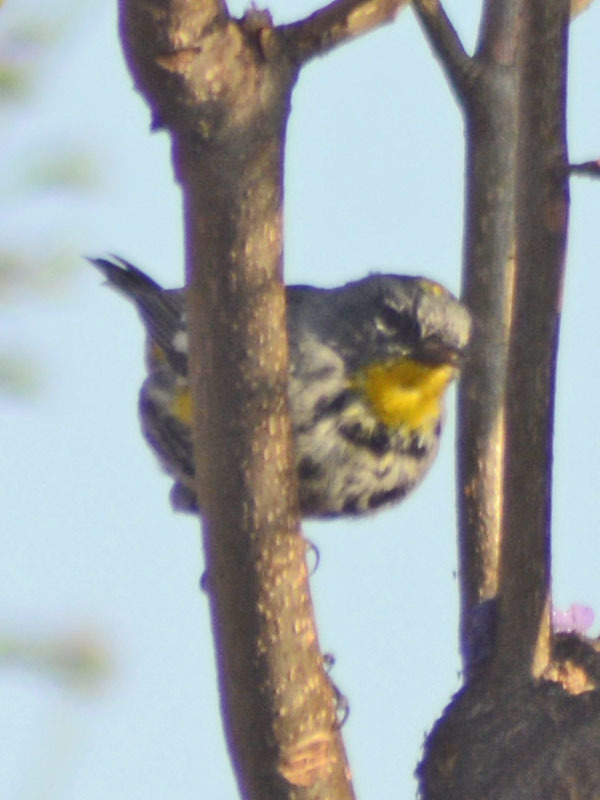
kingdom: Animalia
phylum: Chordata
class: Aves
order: Passeriformes
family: Parulidae
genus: Setophaga
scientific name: Setophaga auduboni
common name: Audubon's warbler
